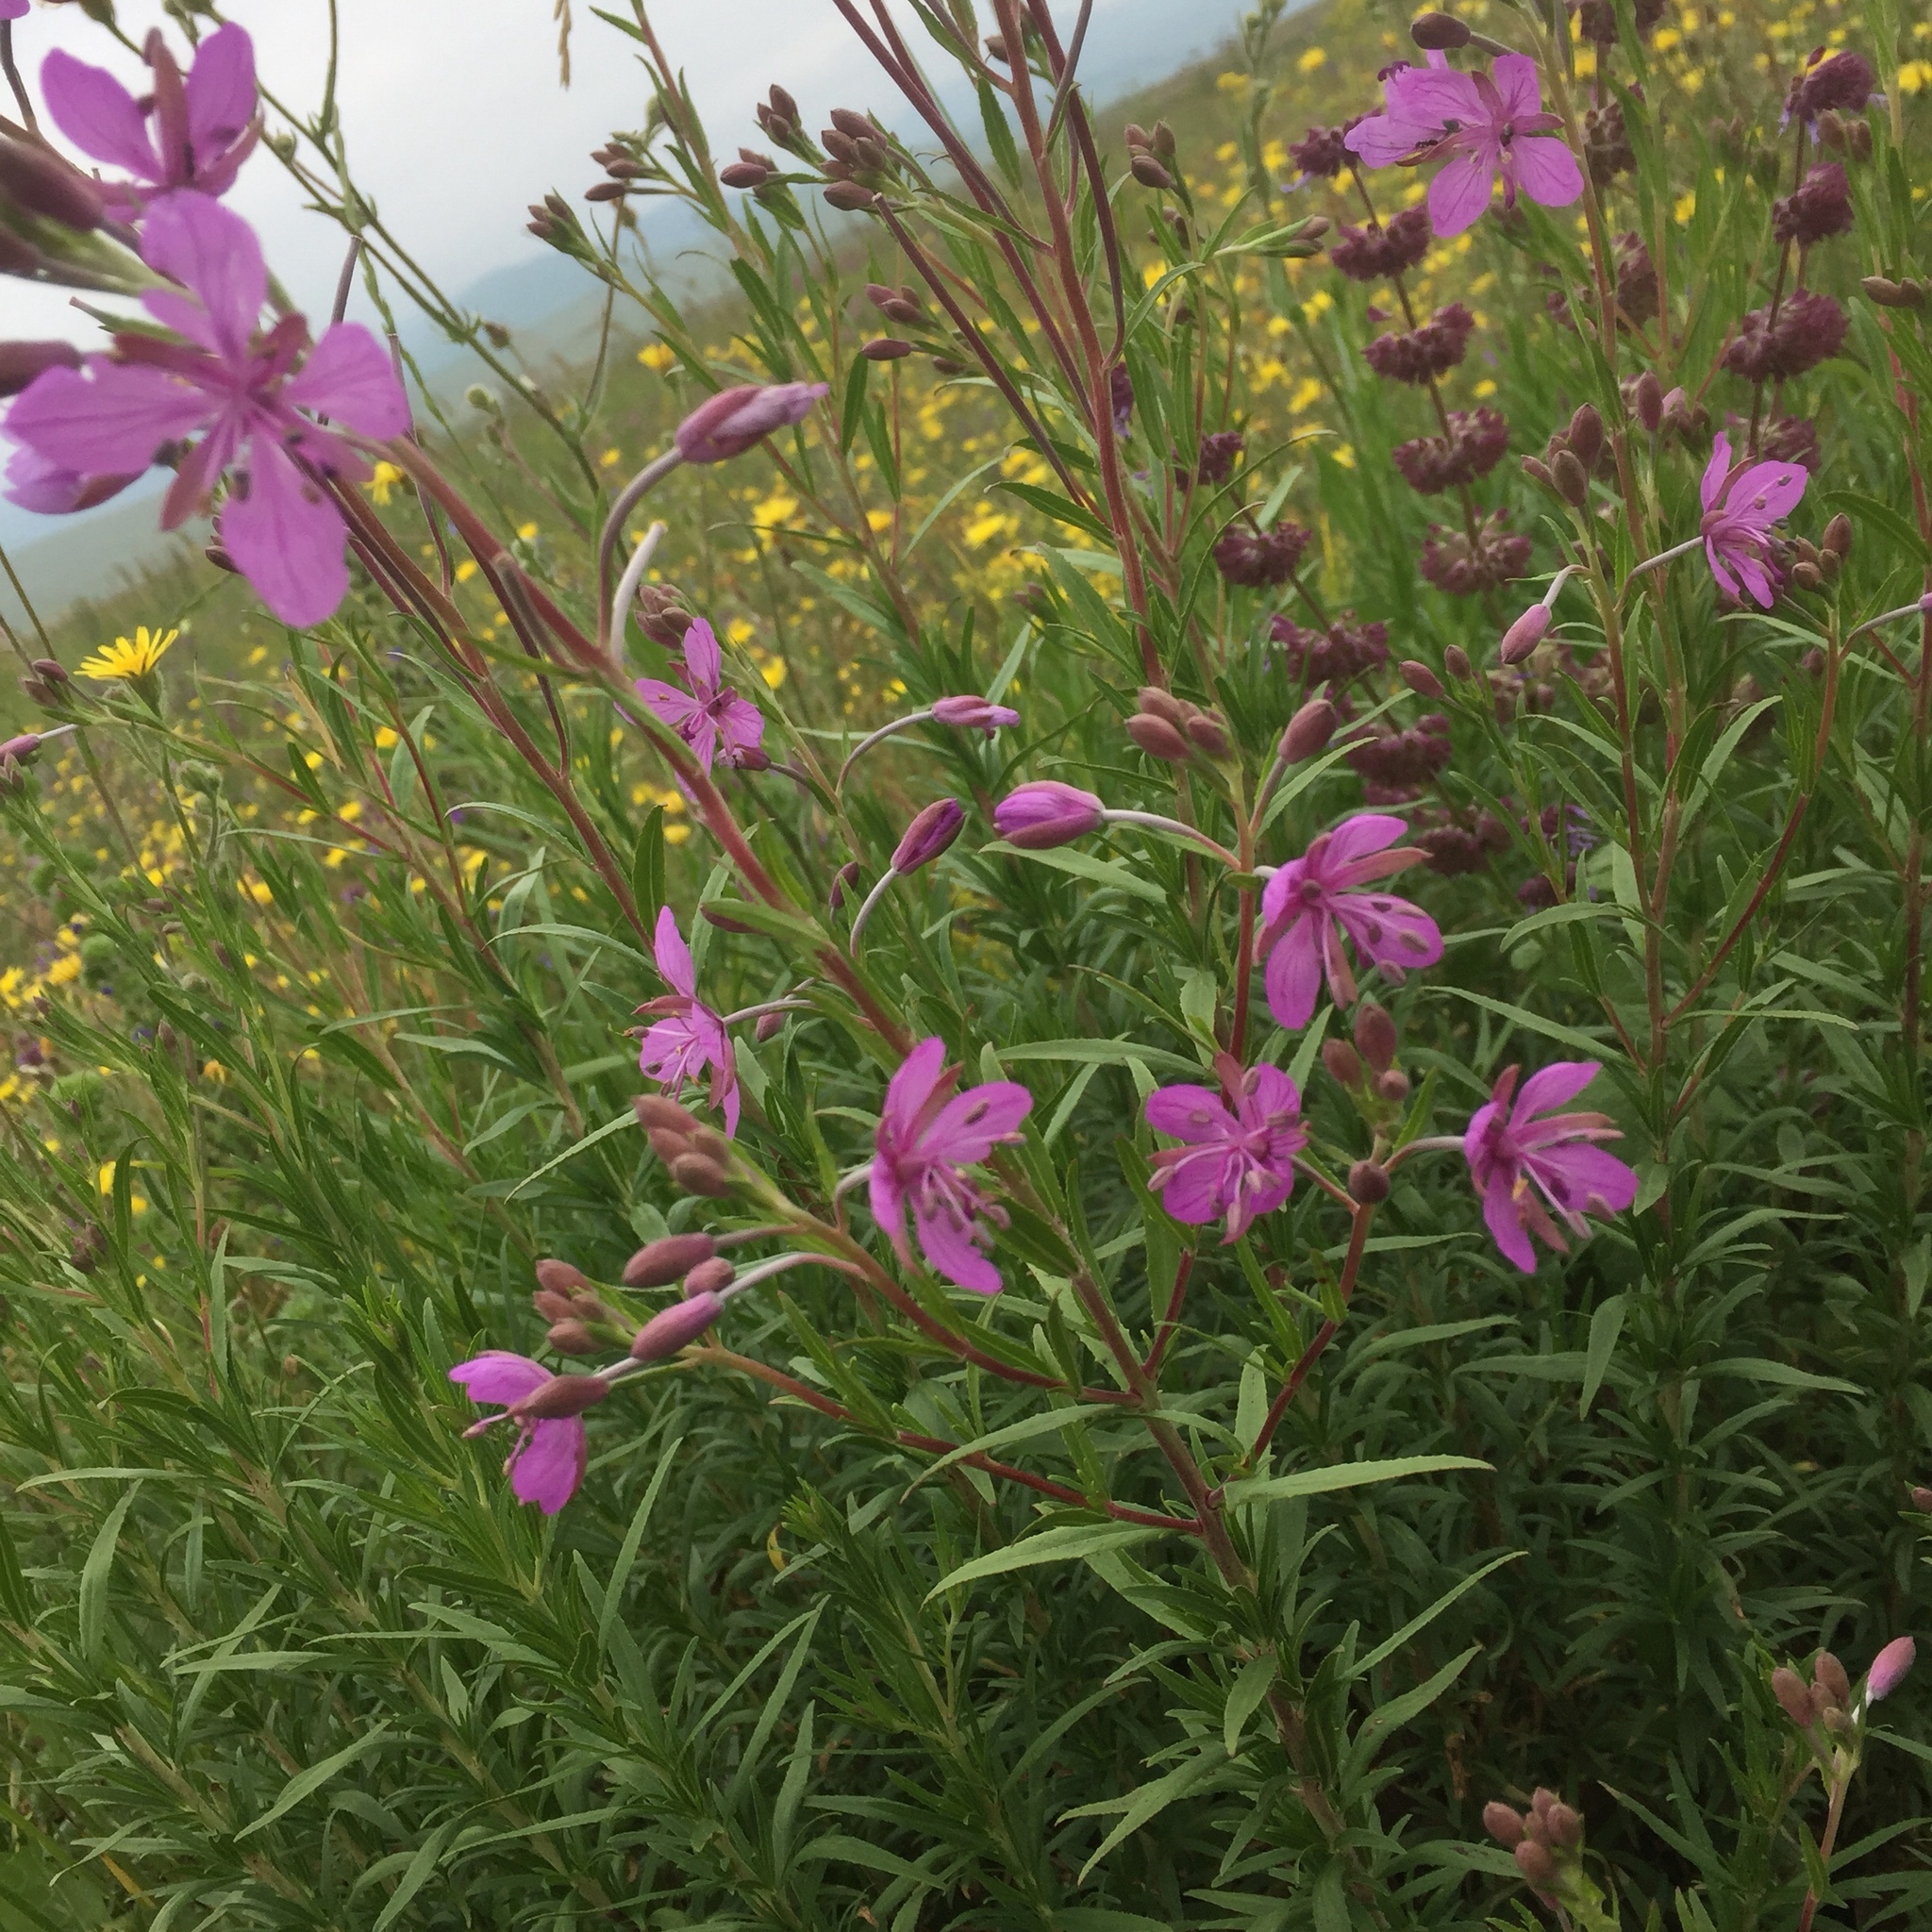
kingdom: Plantae
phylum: Tracheophyta
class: Magnoliopsida
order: Myrtales
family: Onagraceae
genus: Chamaenerion
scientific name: Chamaenerion angustifolium
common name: Fireweed
